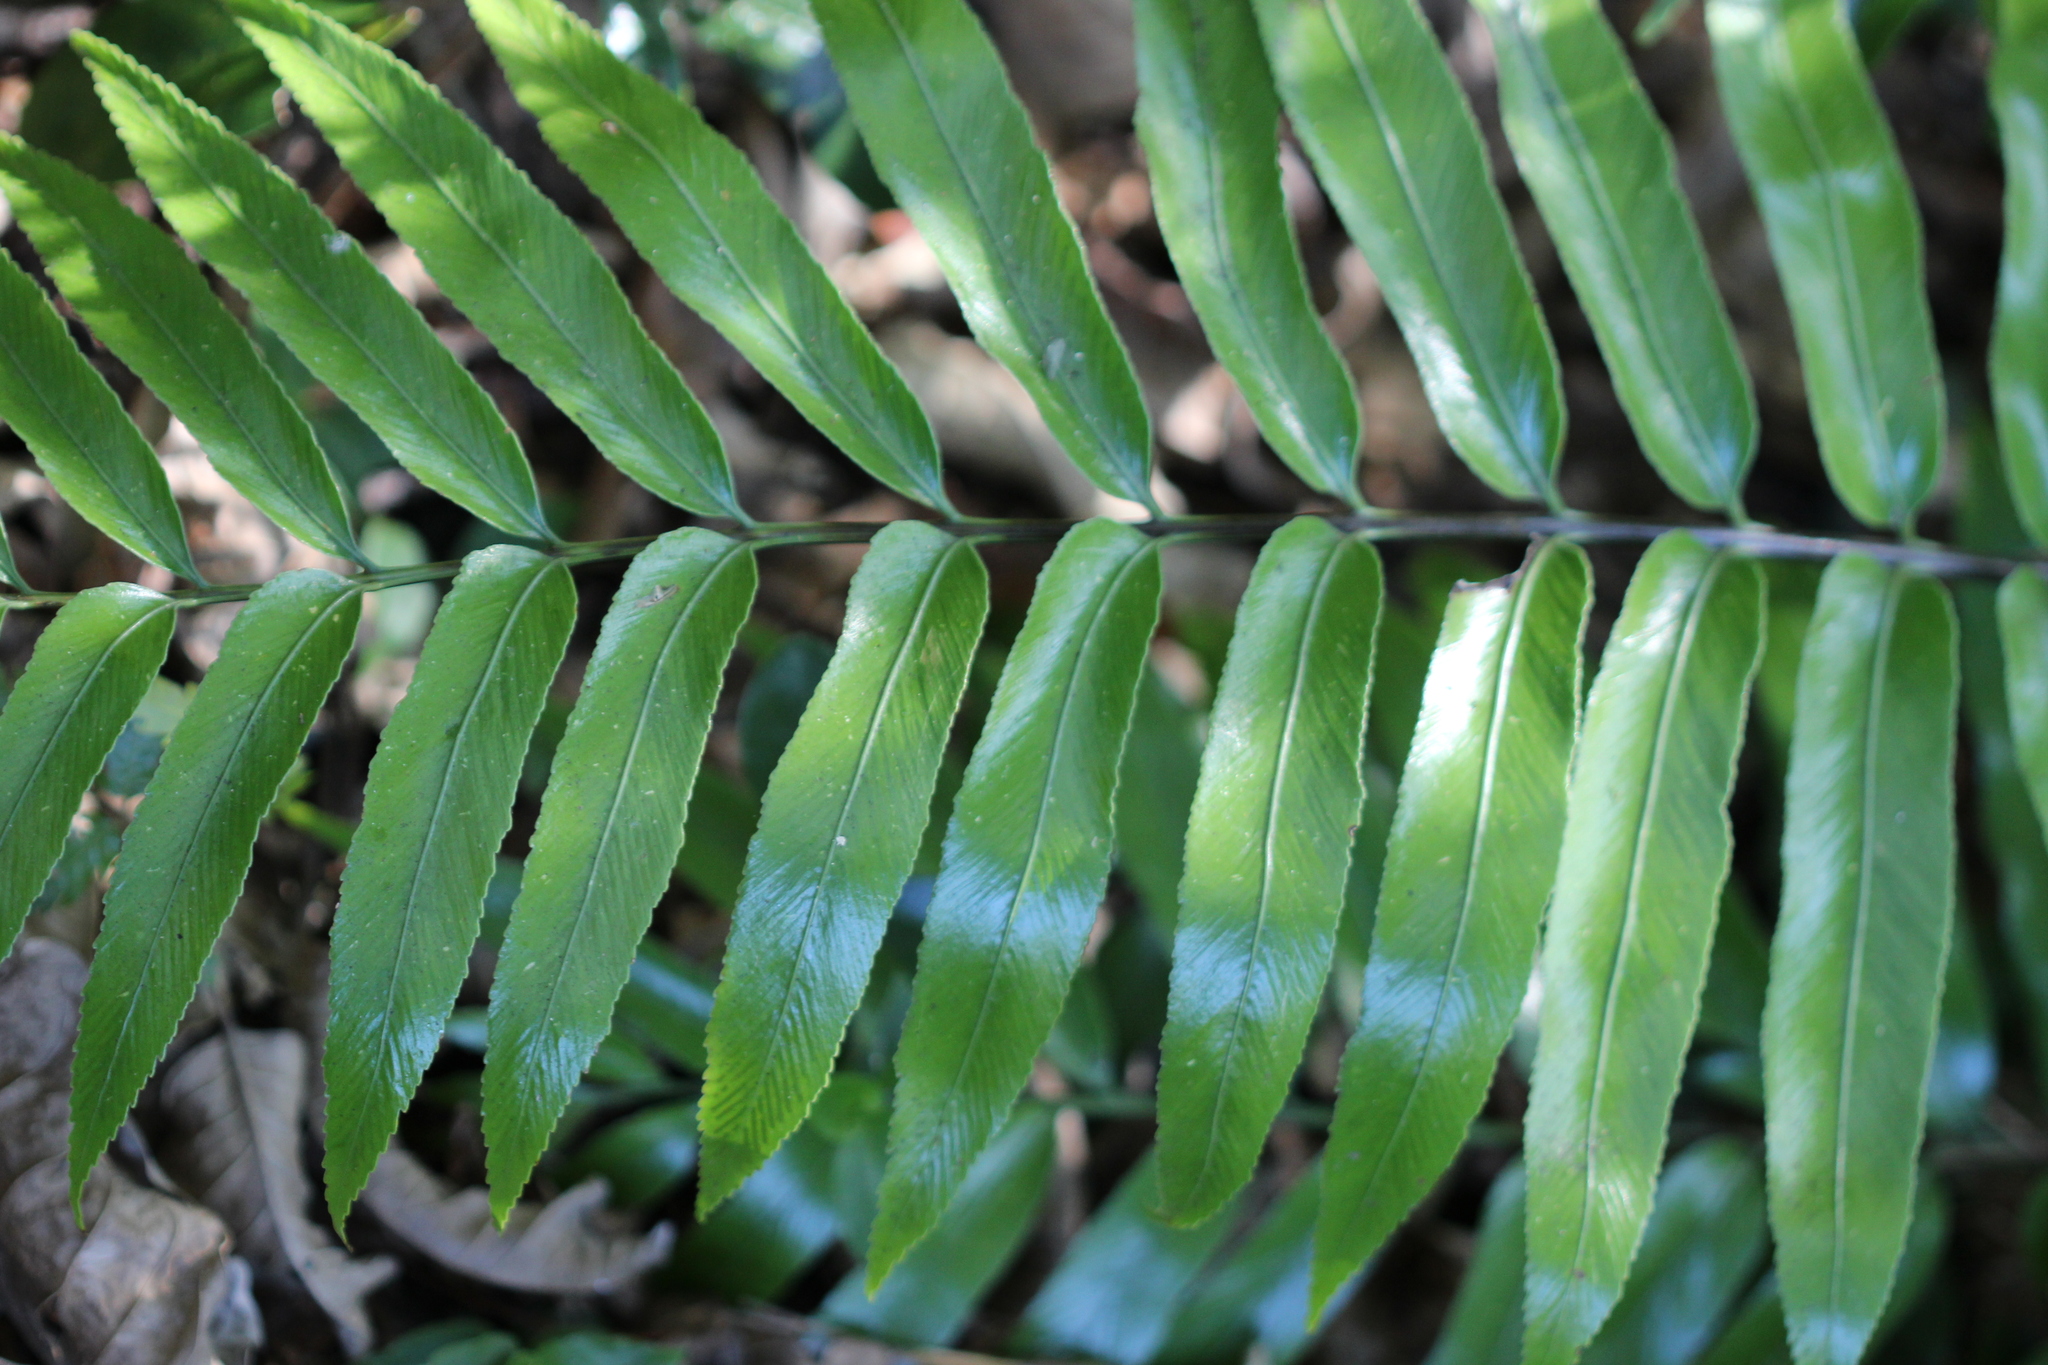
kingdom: Plantae
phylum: Tracheophyta
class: Polypodiopsida
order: Polypodiales
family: Aspleniaceae
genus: Asplenium
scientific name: Asplenium oblongifolium
